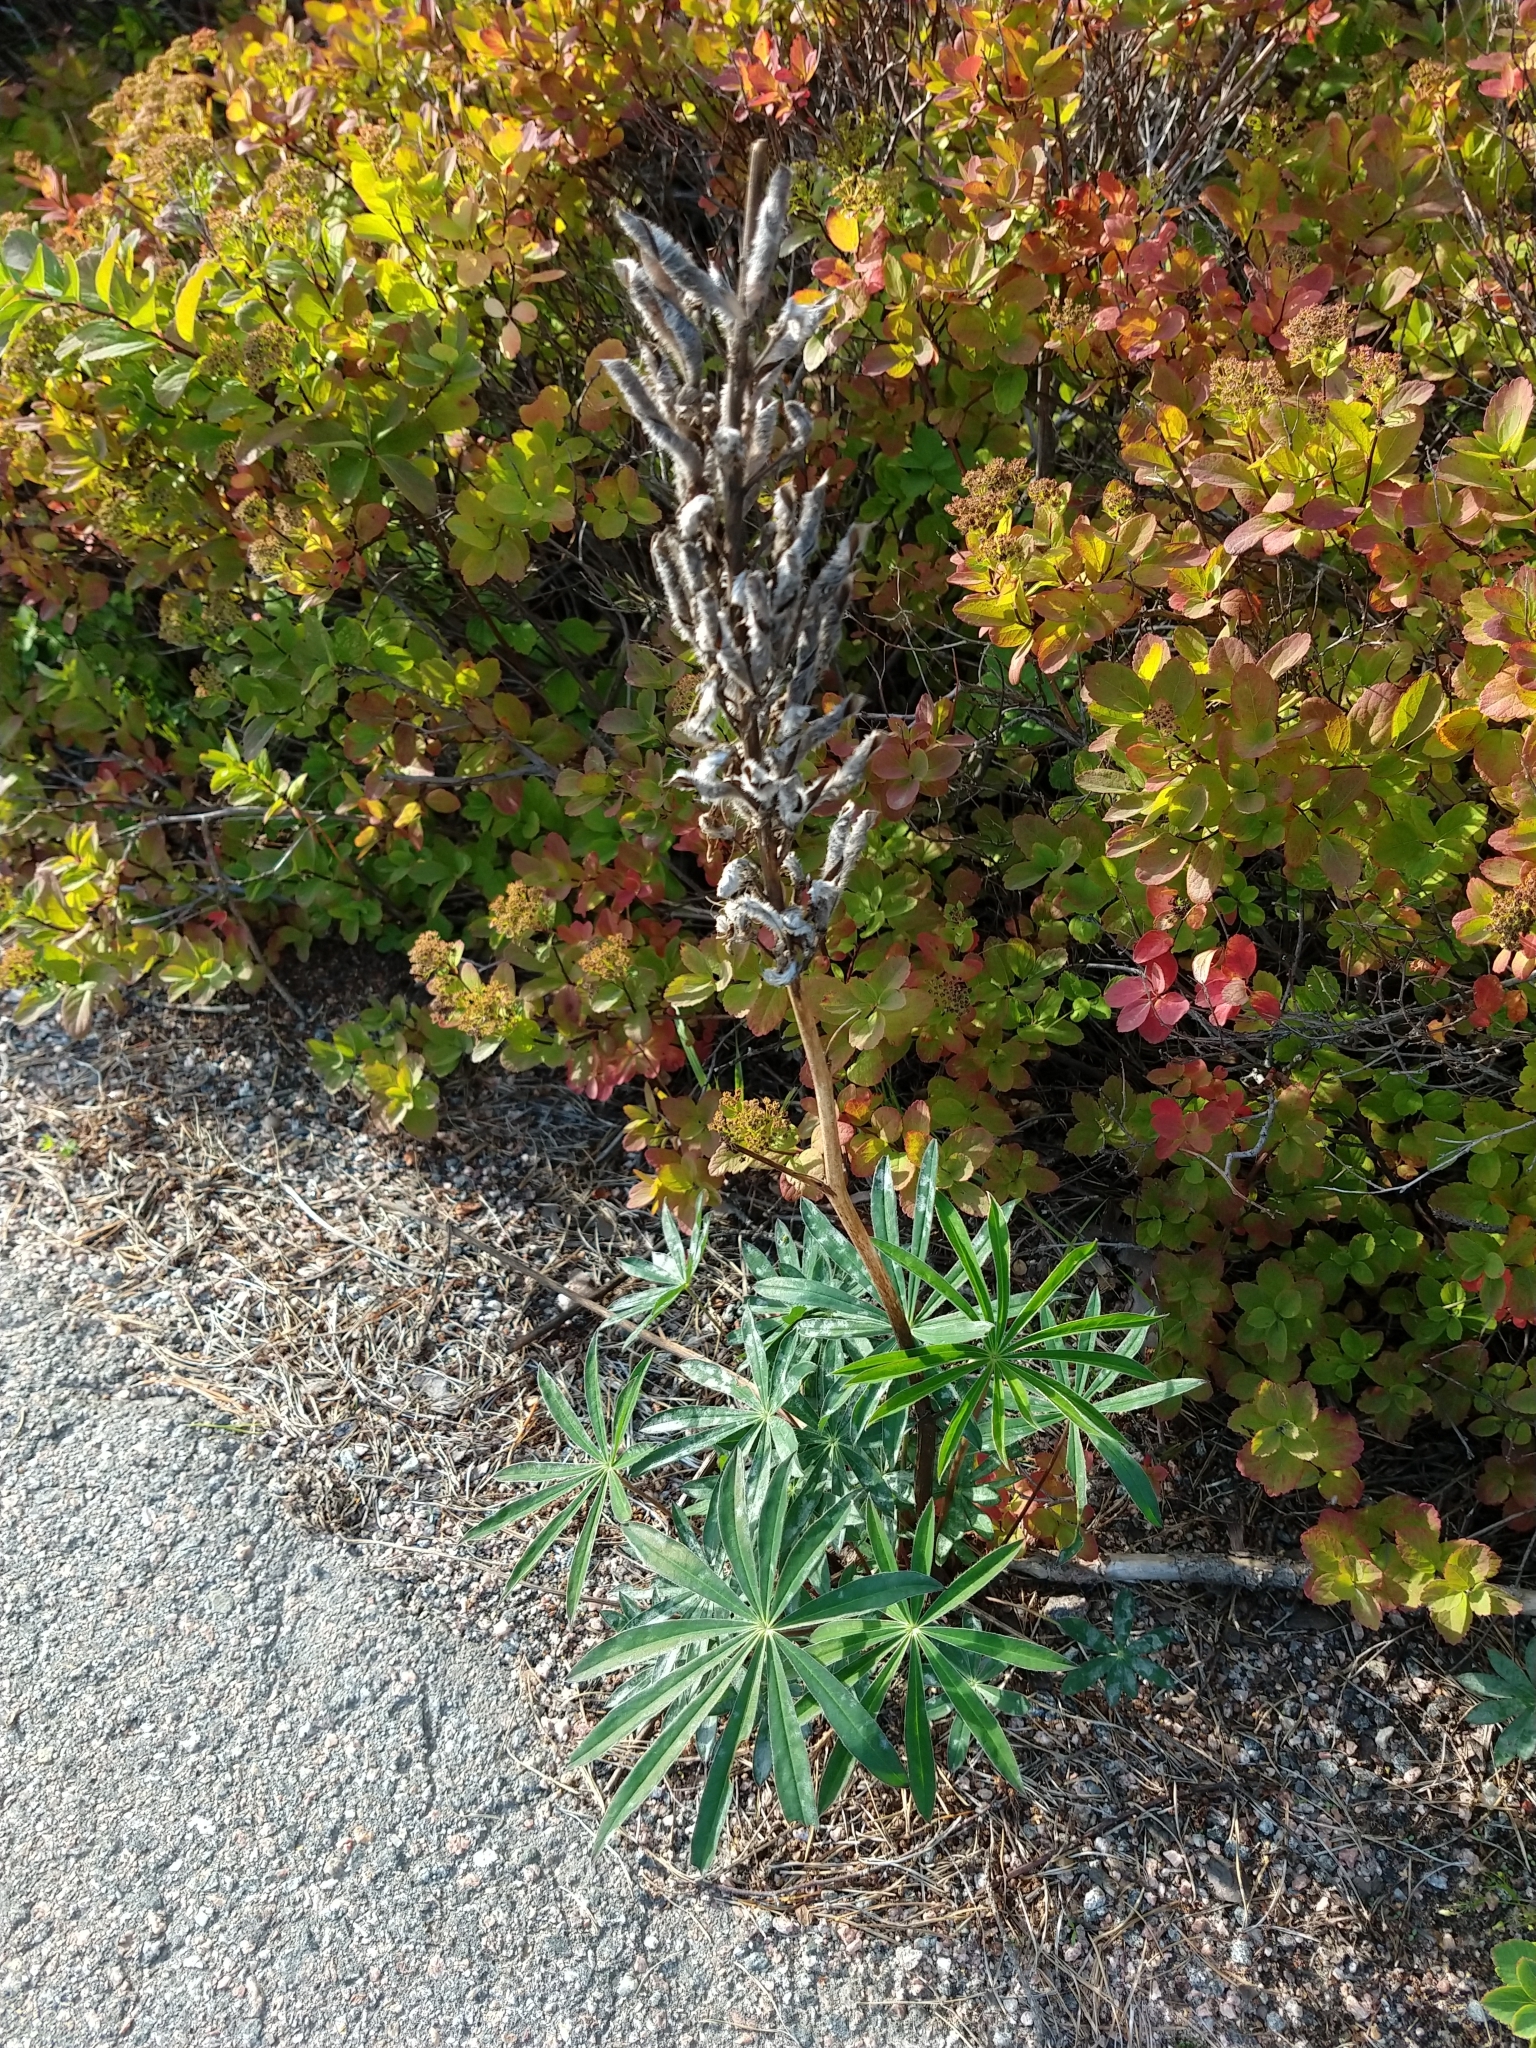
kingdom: Plantae
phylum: Tracheophyta
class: Magnoliopsida
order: Fabales
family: Fabaceae
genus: Lupinus
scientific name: Lupinus polyphyllus
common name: Garden lupin
